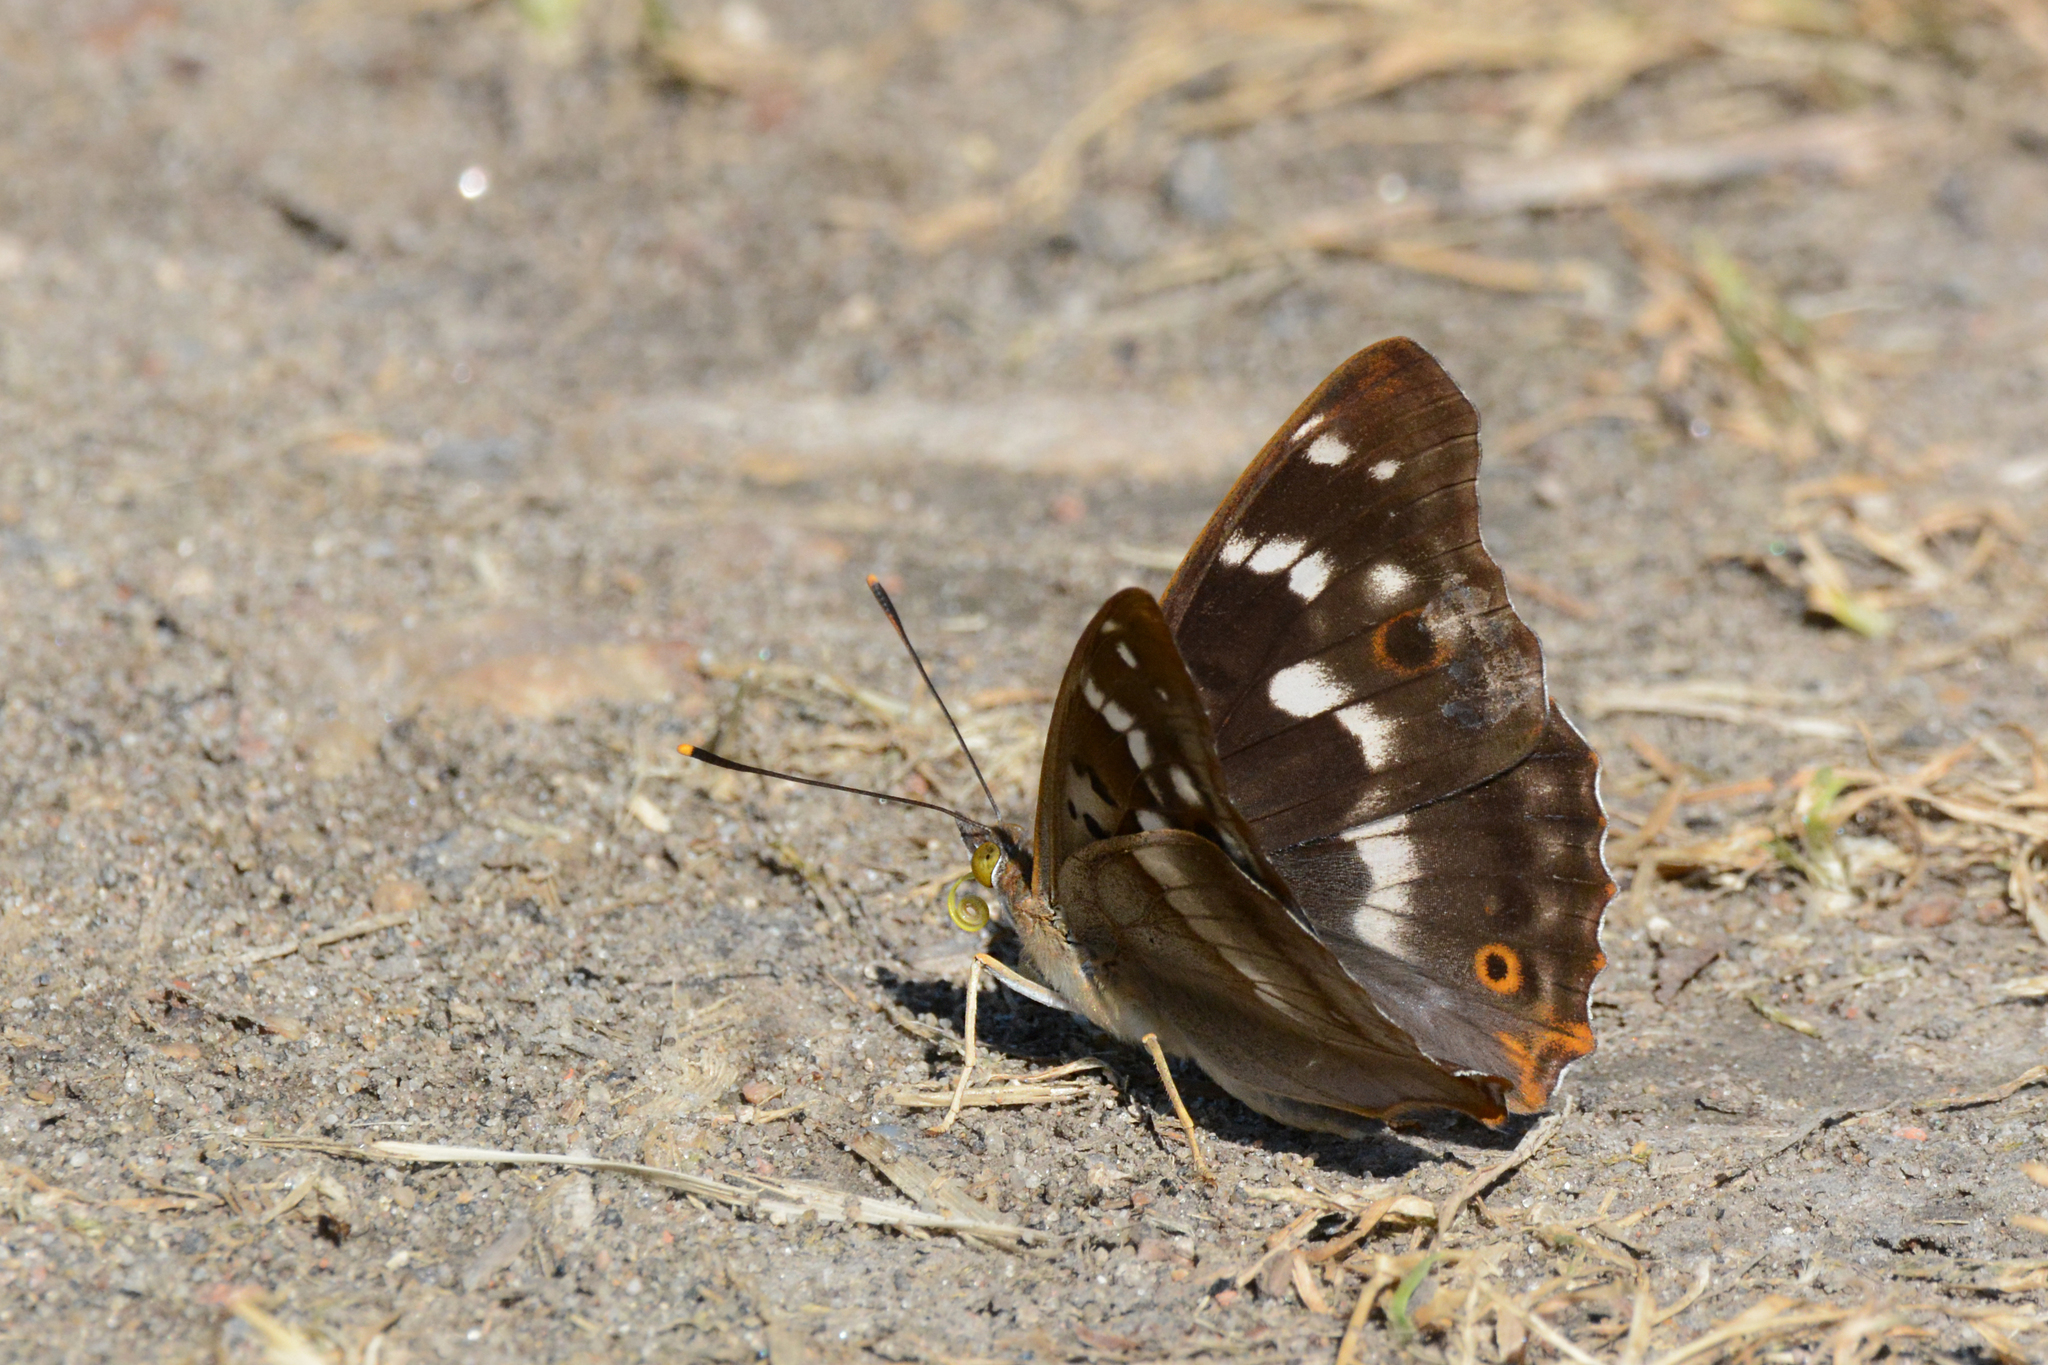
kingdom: Animalia
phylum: Arthropoda
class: Insecta
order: Lepidoptera
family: Nymphalidae
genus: Apatura
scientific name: Apatura ilia
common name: Lesser purple emperor
